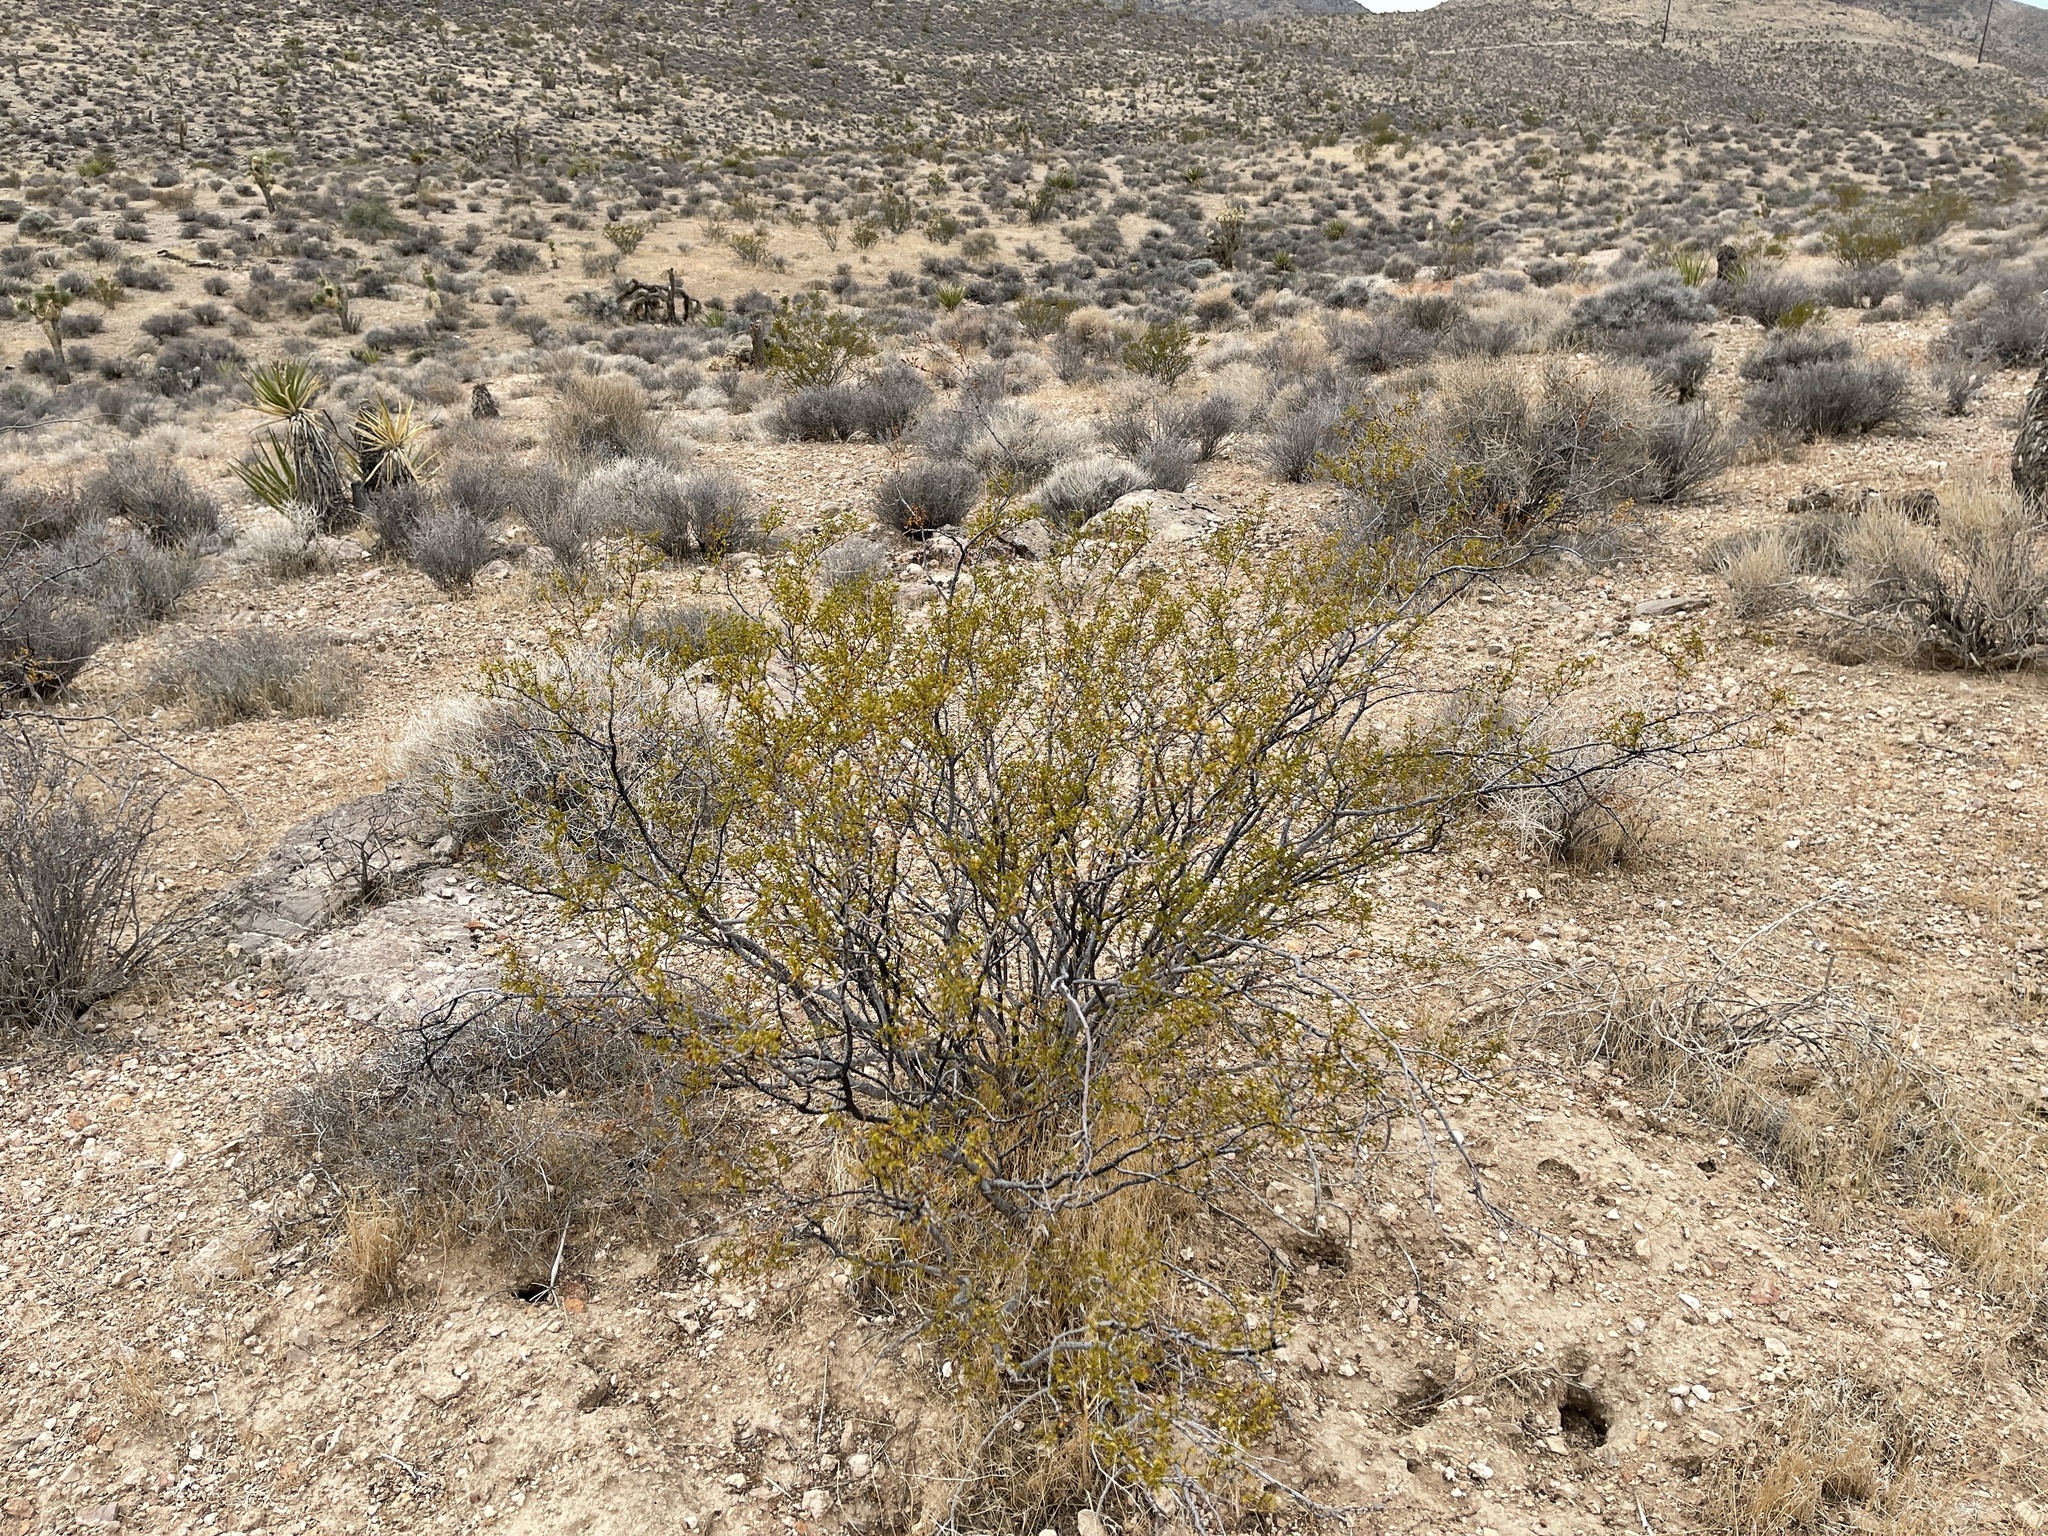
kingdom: Plantae
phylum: Tracheophyta
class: Magnoliopsida
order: Zygophyllales
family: Zygophyllaceae
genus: Larrea
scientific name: Larrea tridentata
